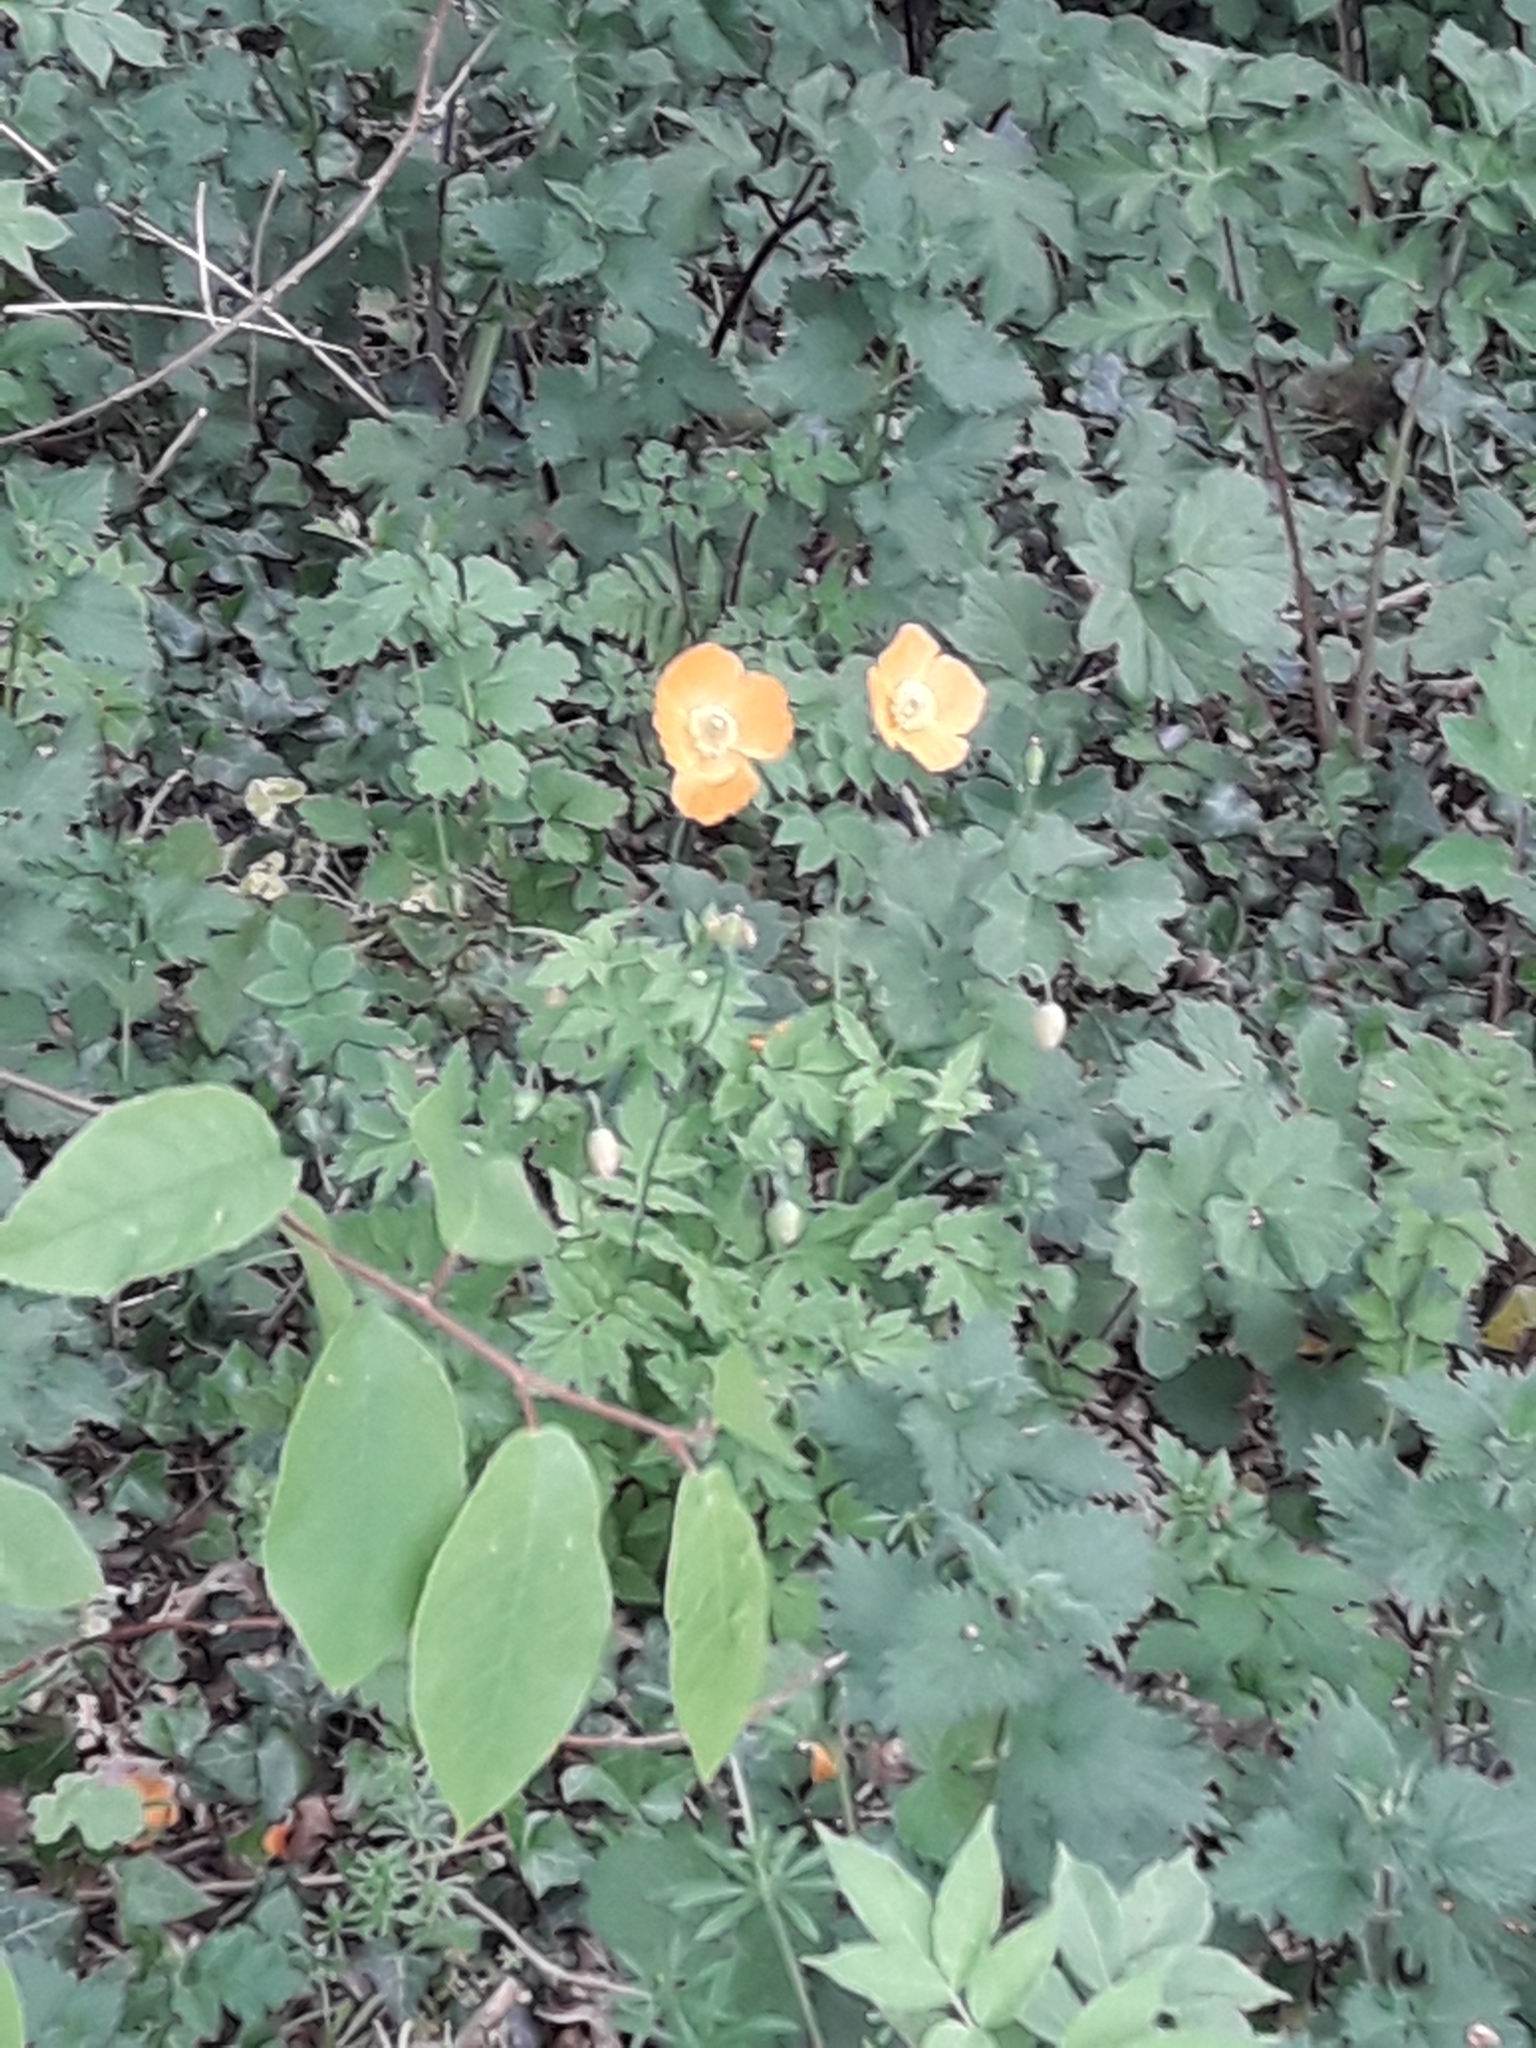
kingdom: Plantae
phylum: Tracheophyta
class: Magnoliopsida
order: Ranunculales
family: Papaveraceae
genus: Papaver
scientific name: Papaver cambricum
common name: Poppy
